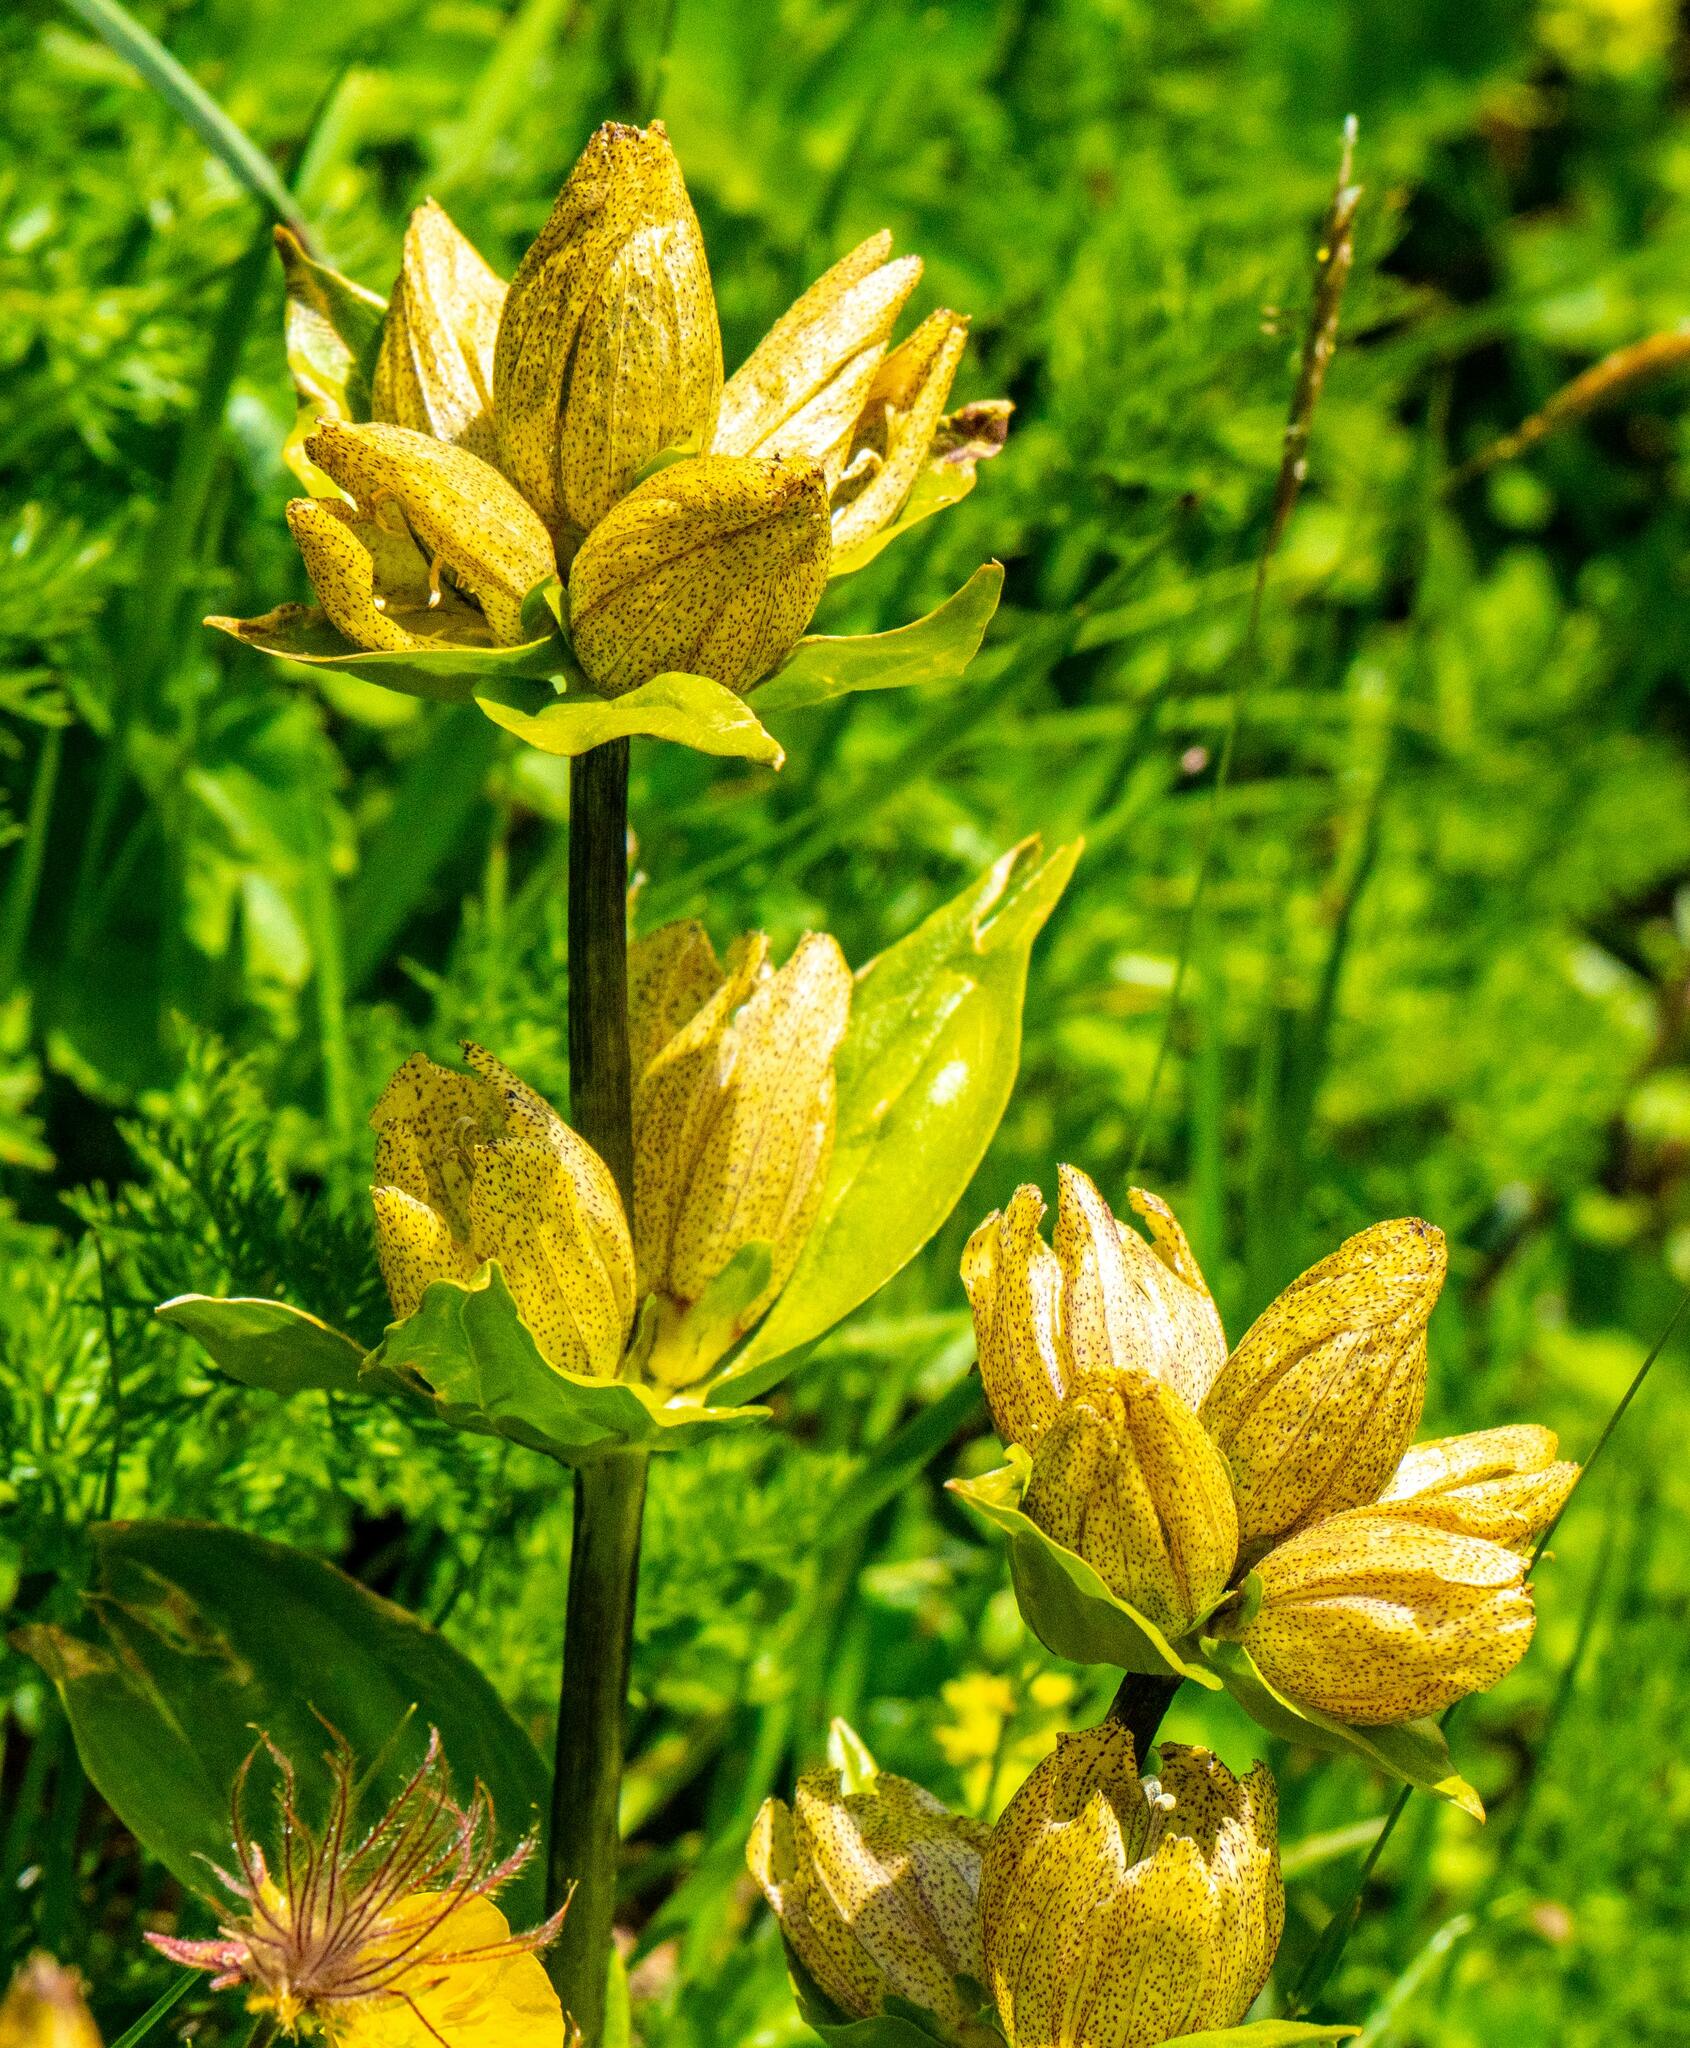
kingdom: Plantae
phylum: Tracheophyta
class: Magnoliopsida
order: Gentianales
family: Gentianaceae
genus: Gentiana
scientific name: Gentiana punctata
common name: Spotted gentian
